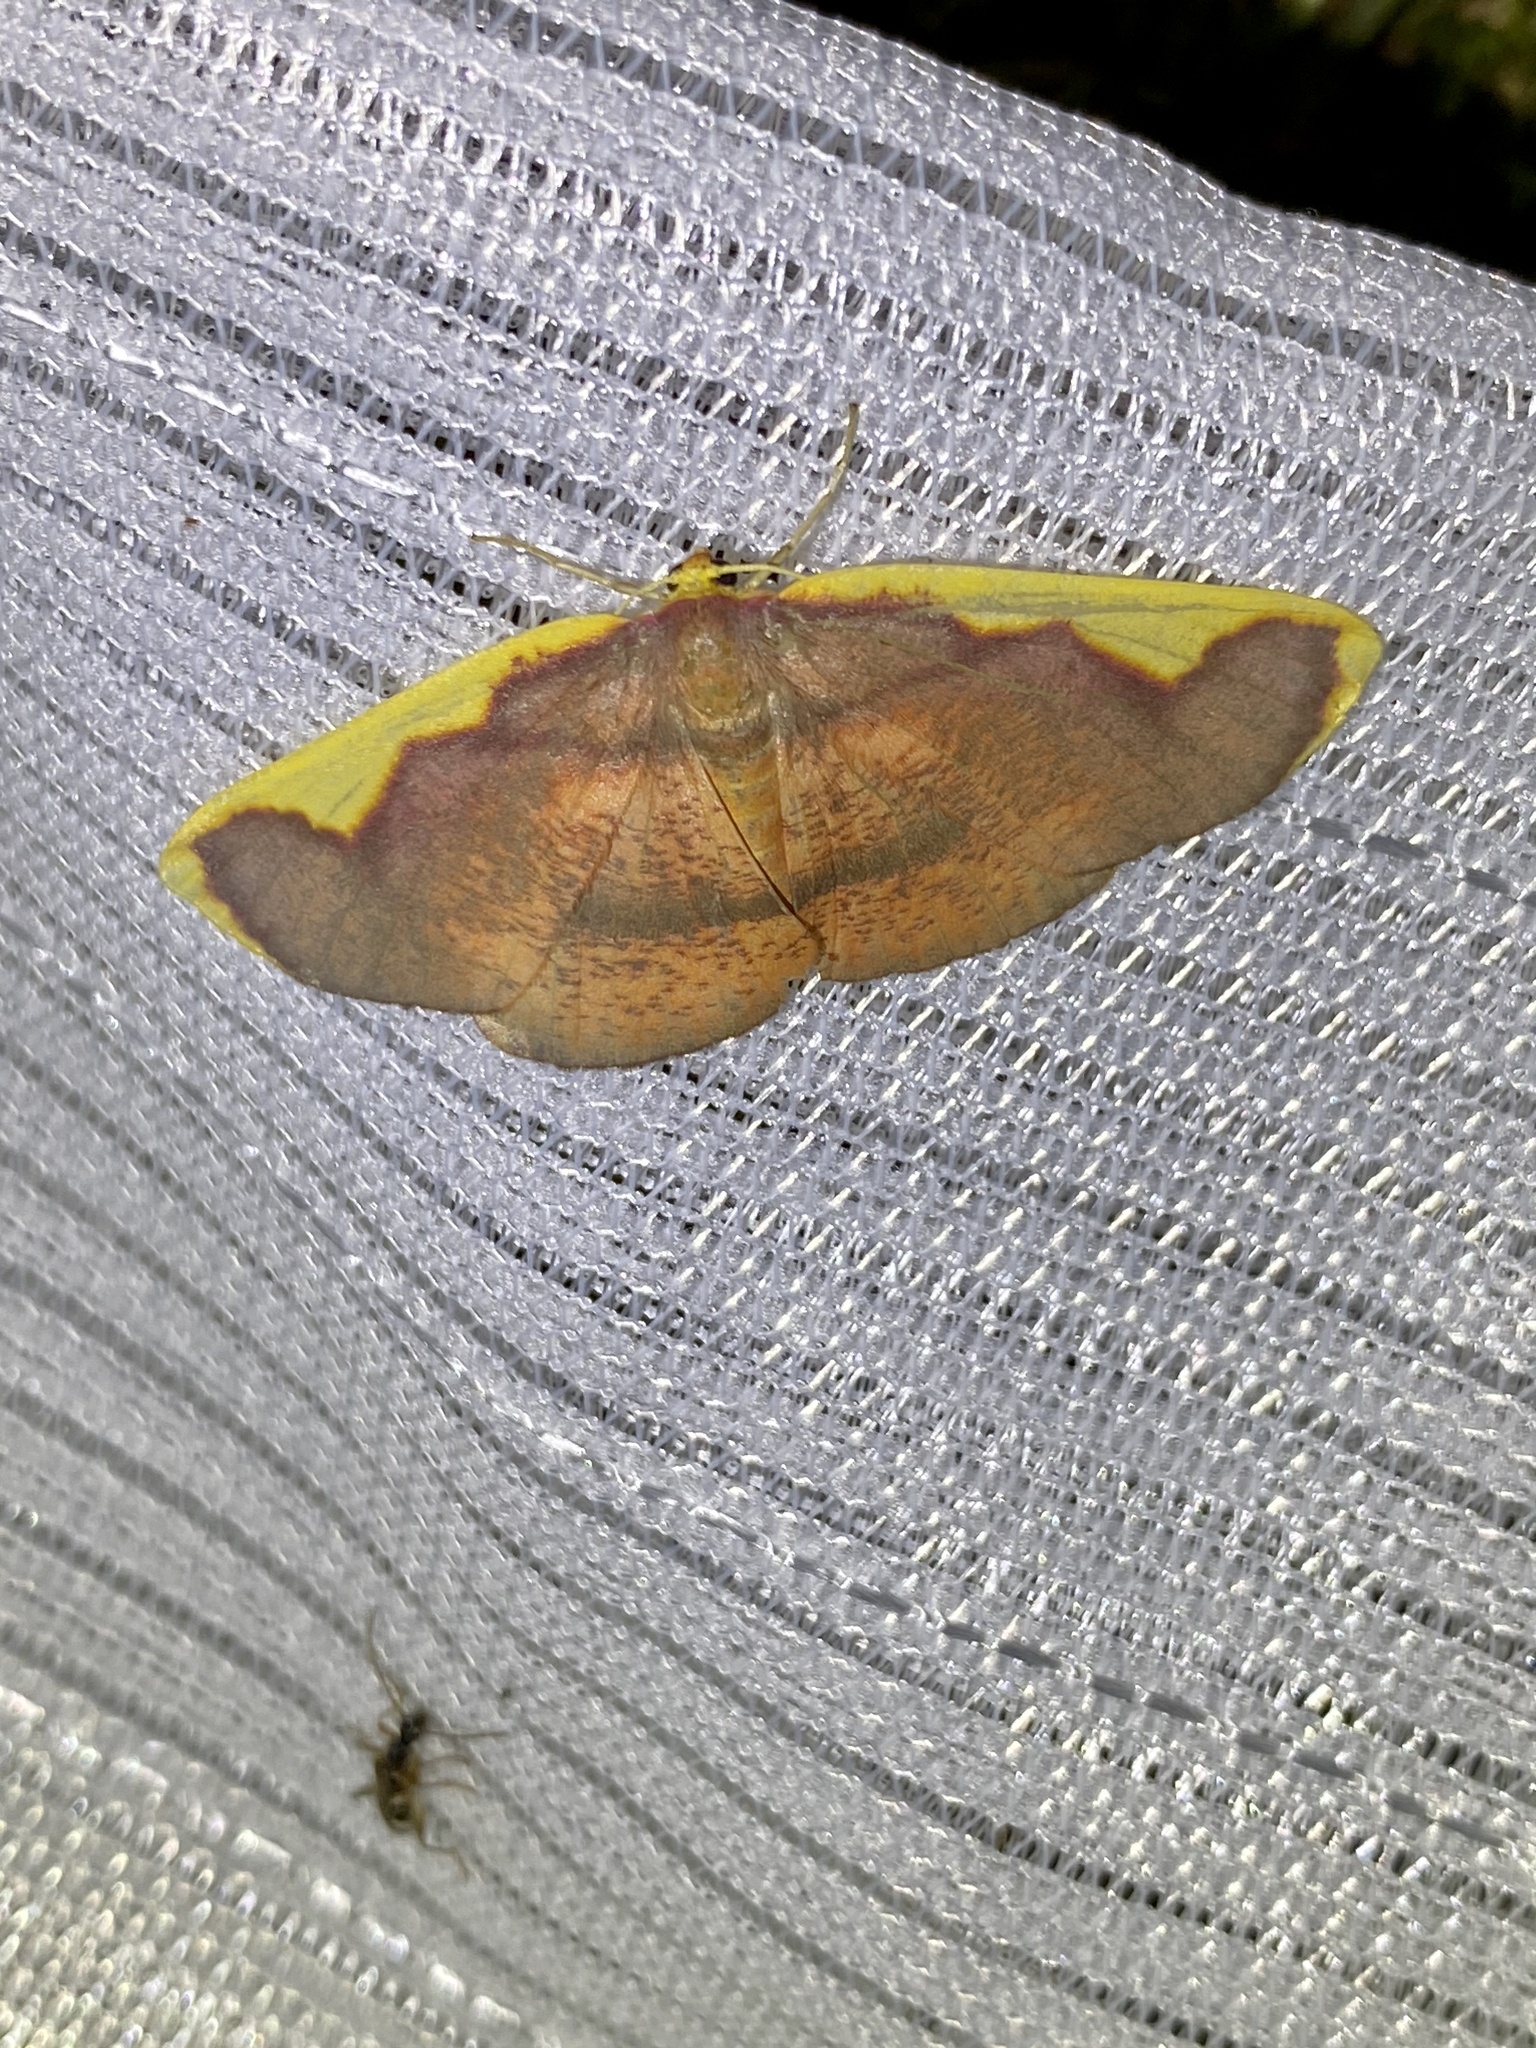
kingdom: Animalia
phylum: Arthropoda
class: Insecta
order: Lepidoptera
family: Geometridae
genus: Nothomiza
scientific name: Nothomiza formosa
